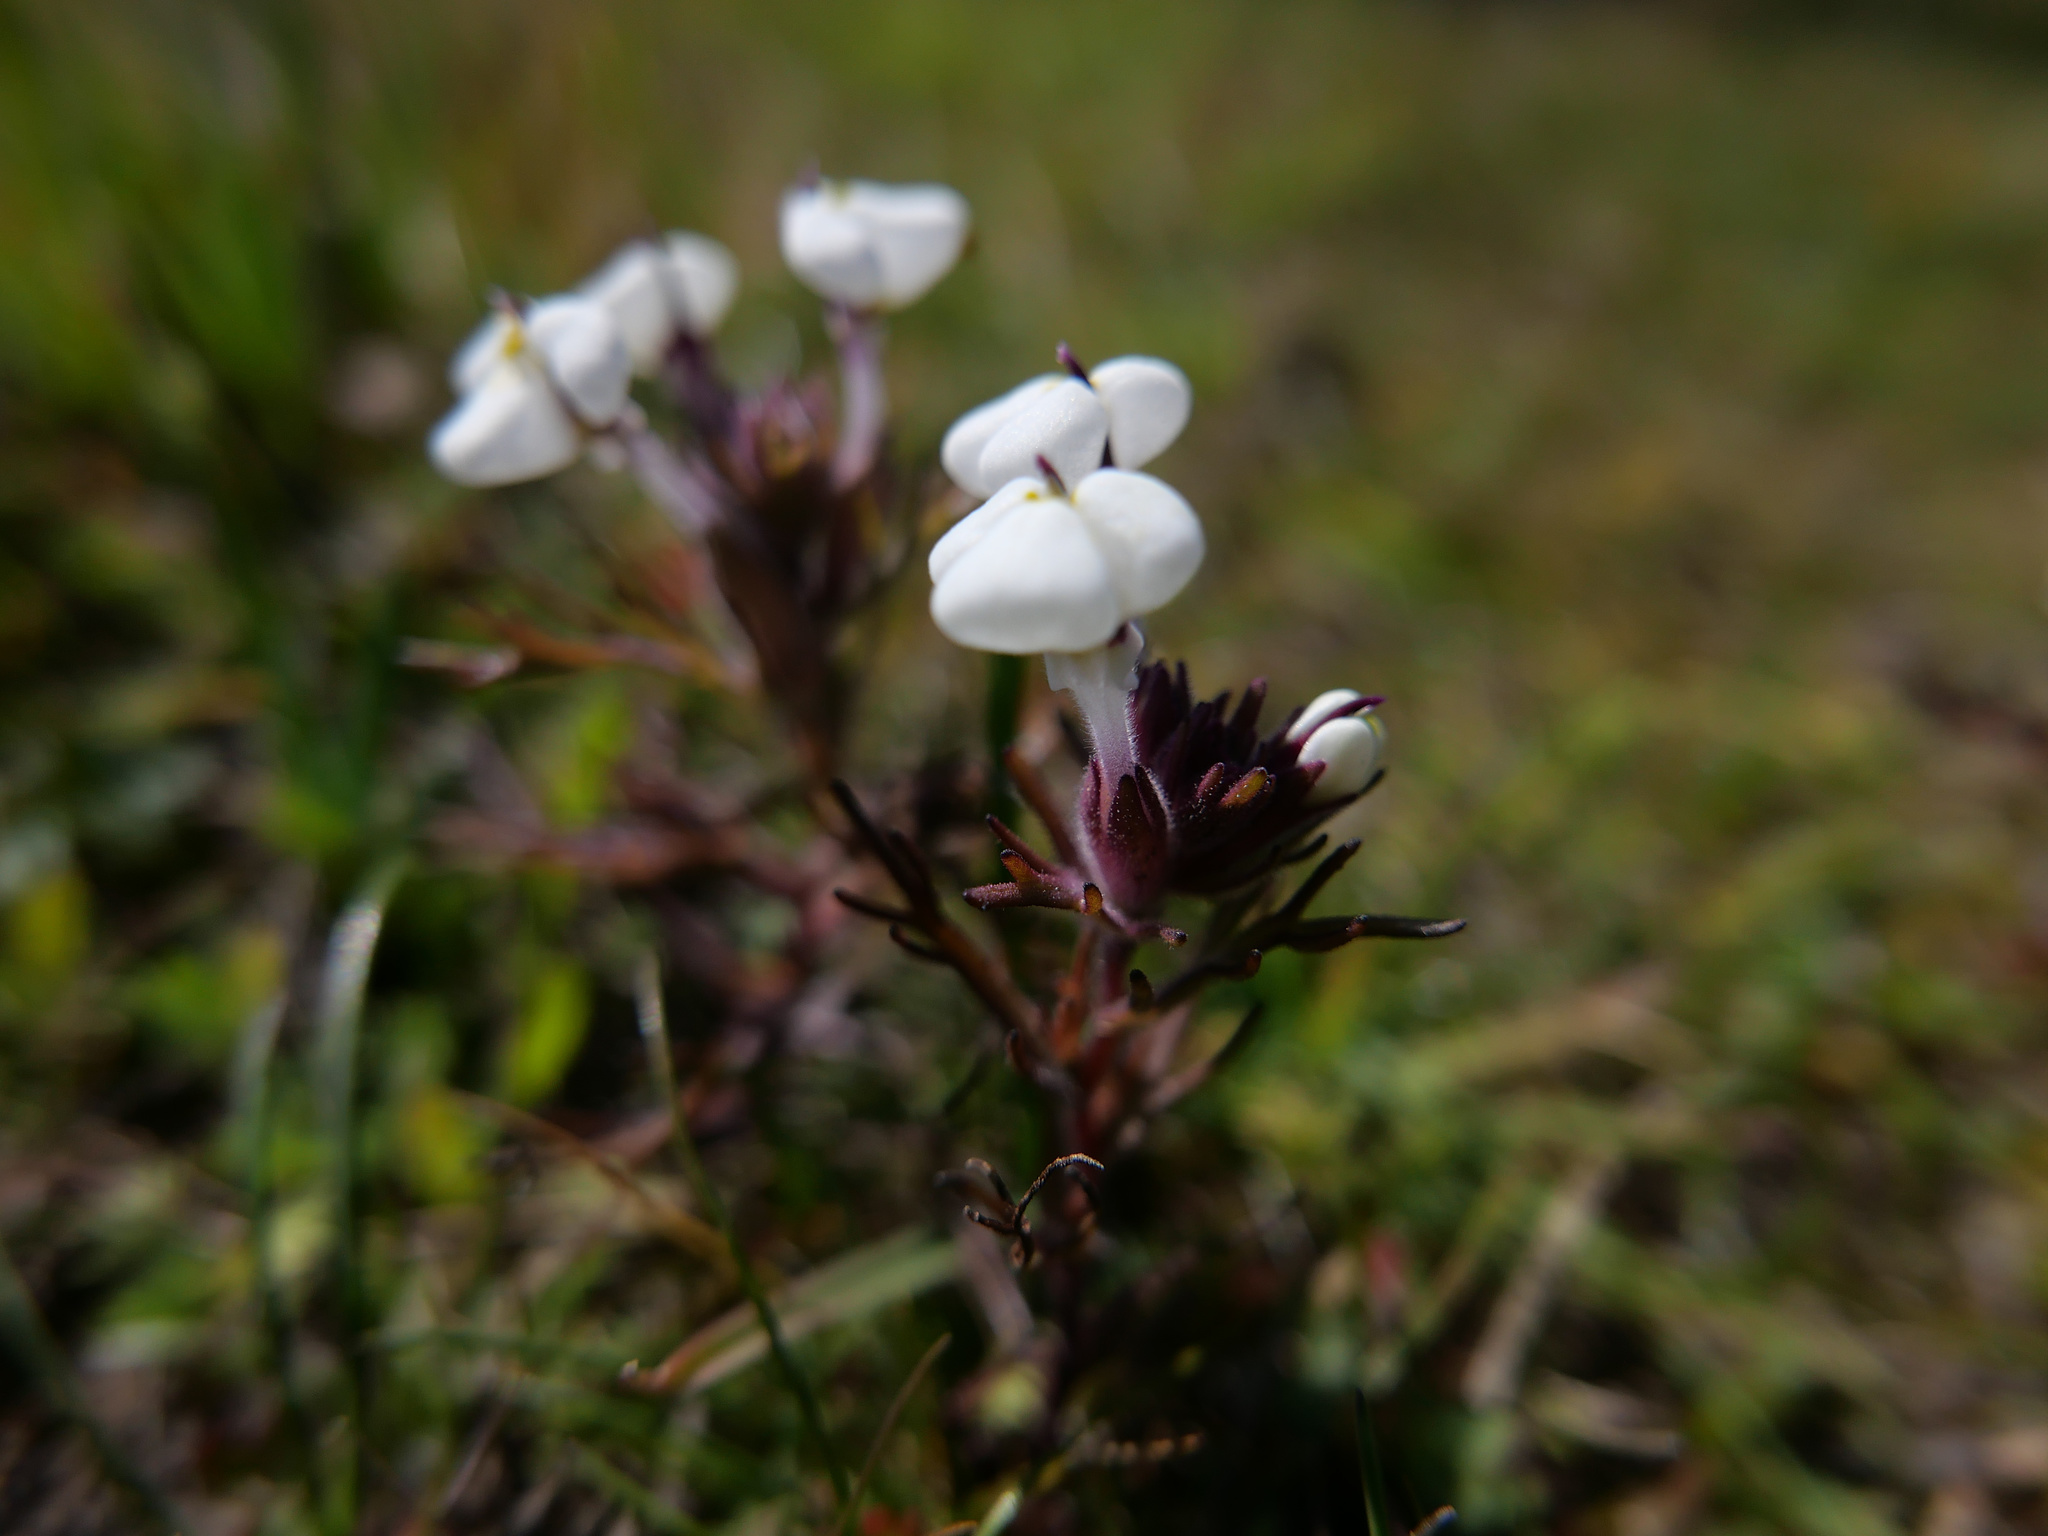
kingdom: Plantae
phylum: Tracheophyta
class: Magnoliopsida
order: Lamiales
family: Orobanchaceae
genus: Triphysaria
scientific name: Triphysaria eriantha
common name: Johnny-tuck
